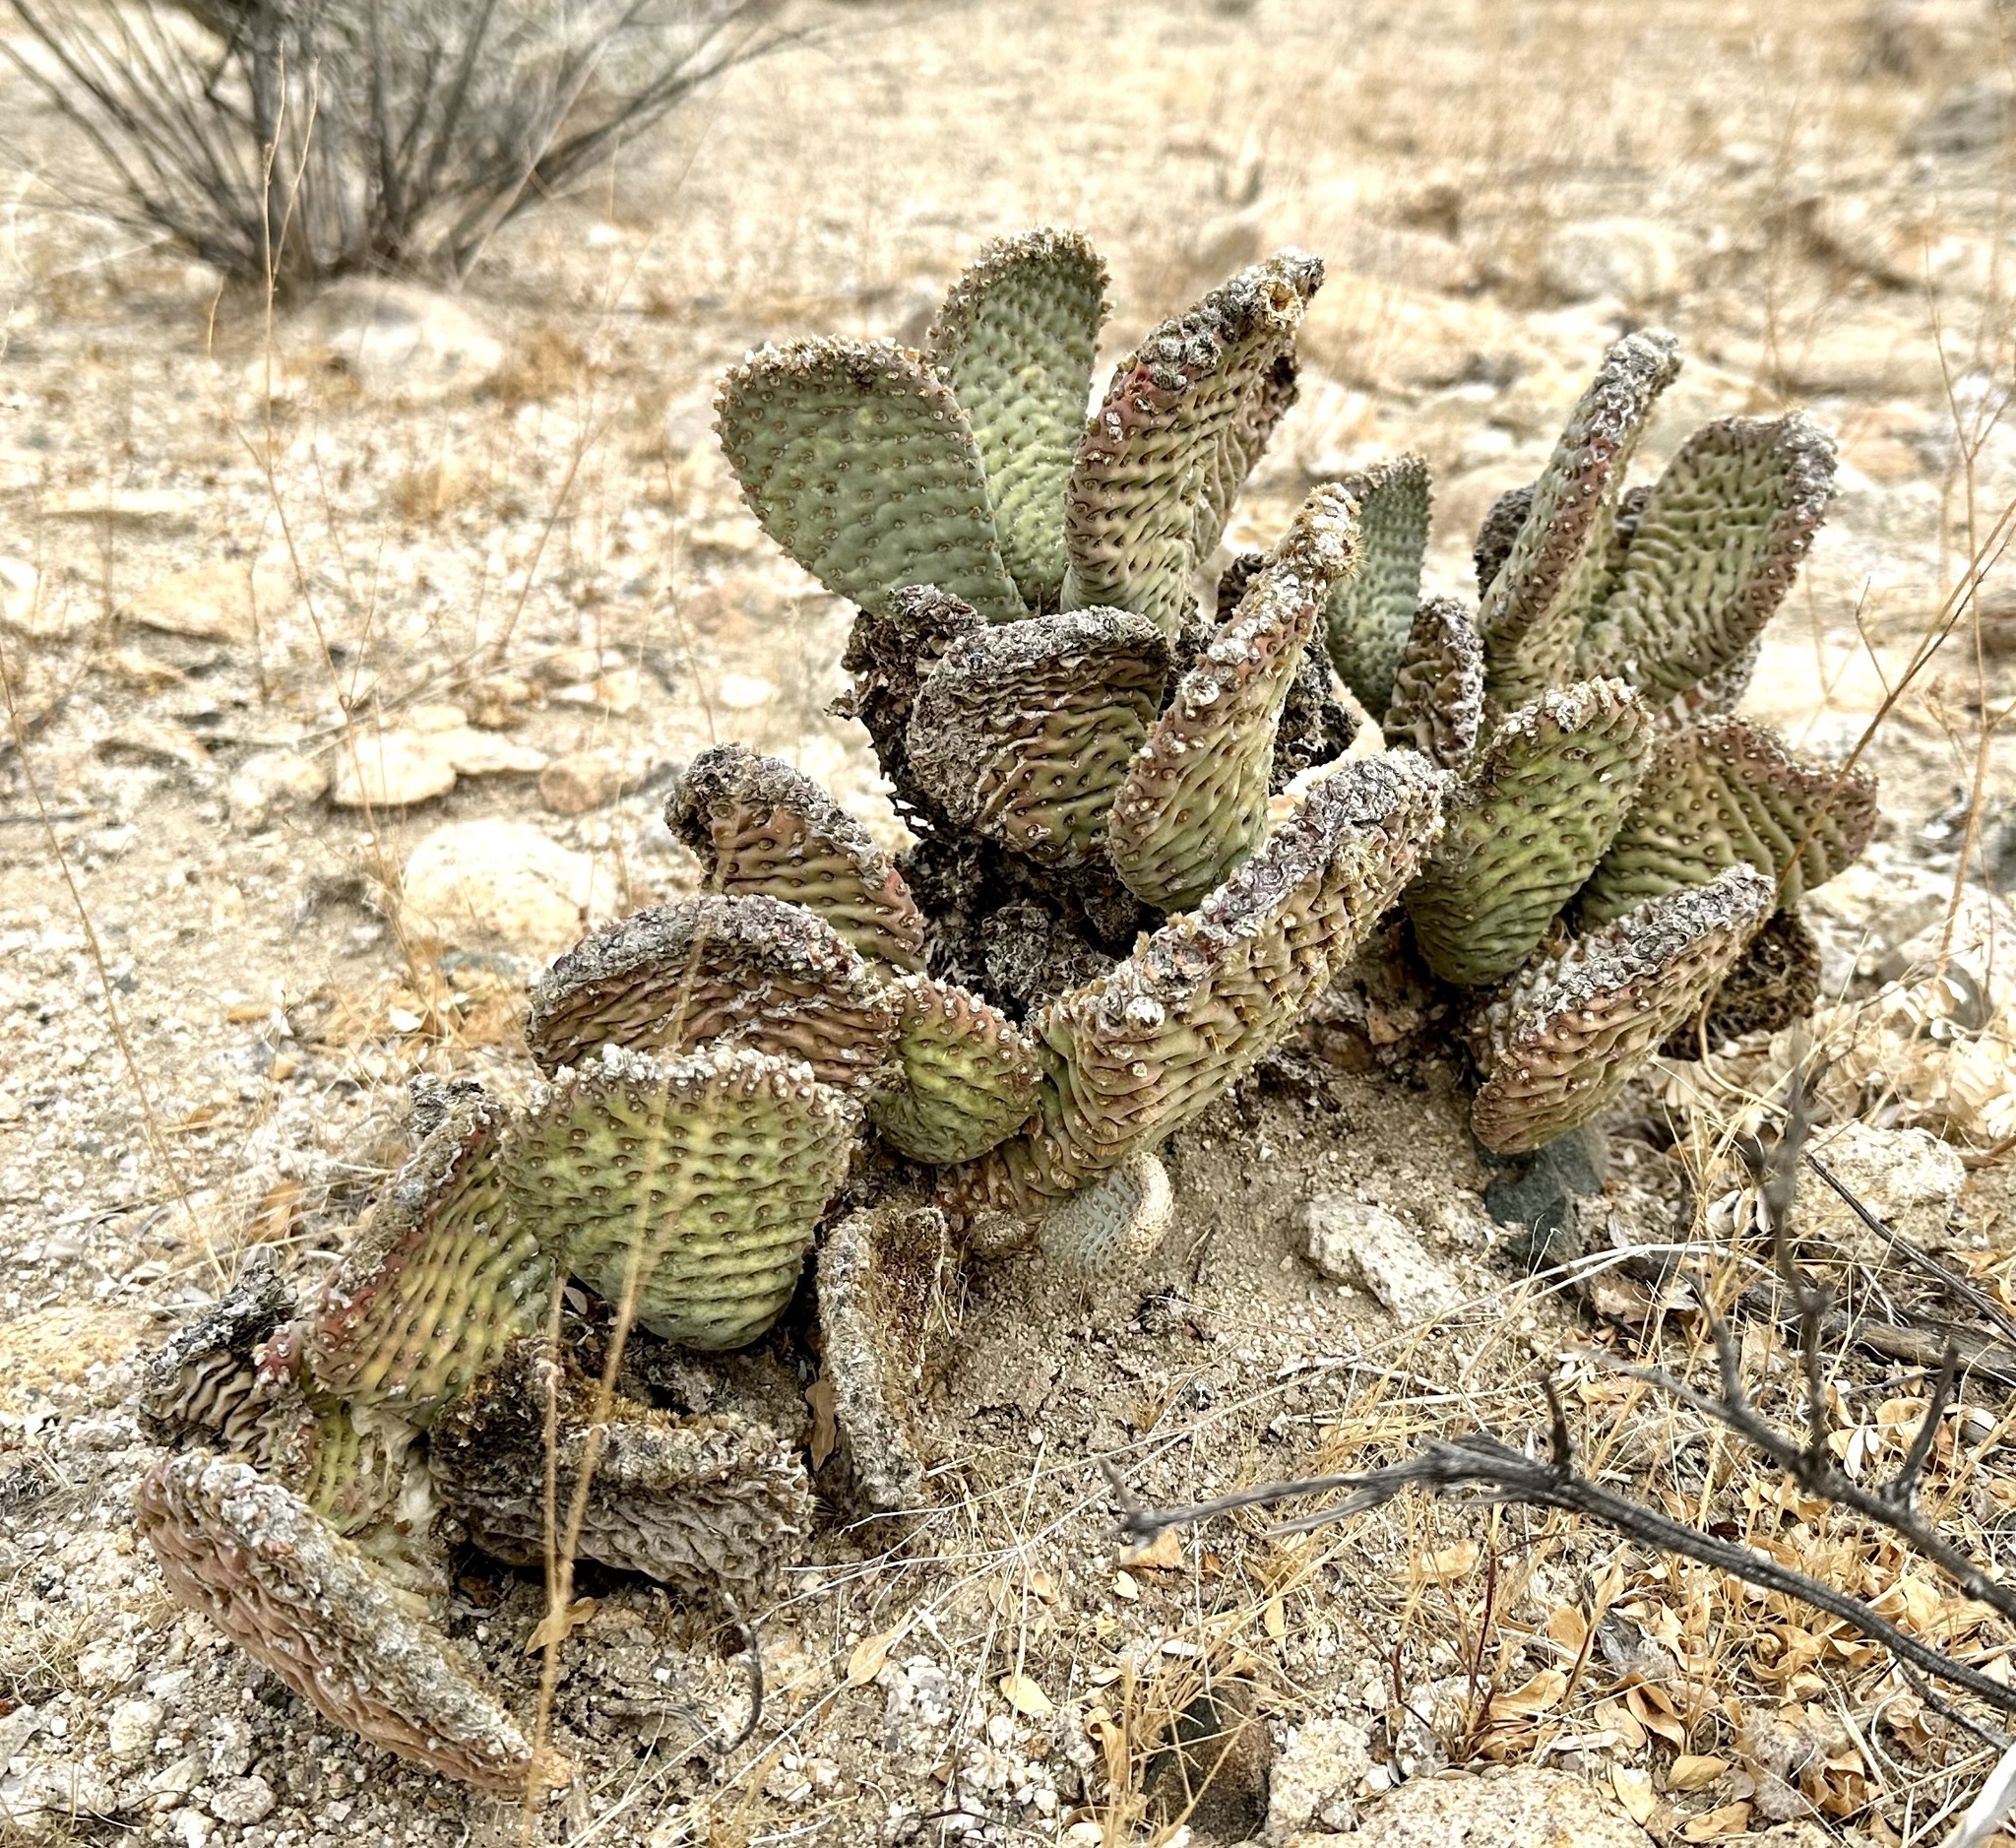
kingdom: Plantae
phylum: Tracheophyta
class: Magnoliopsida
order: Caryophyllales
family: Cactaceae
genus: Opuntia
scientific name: Opuntia basilaris
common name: Beavertail prickly-pear
